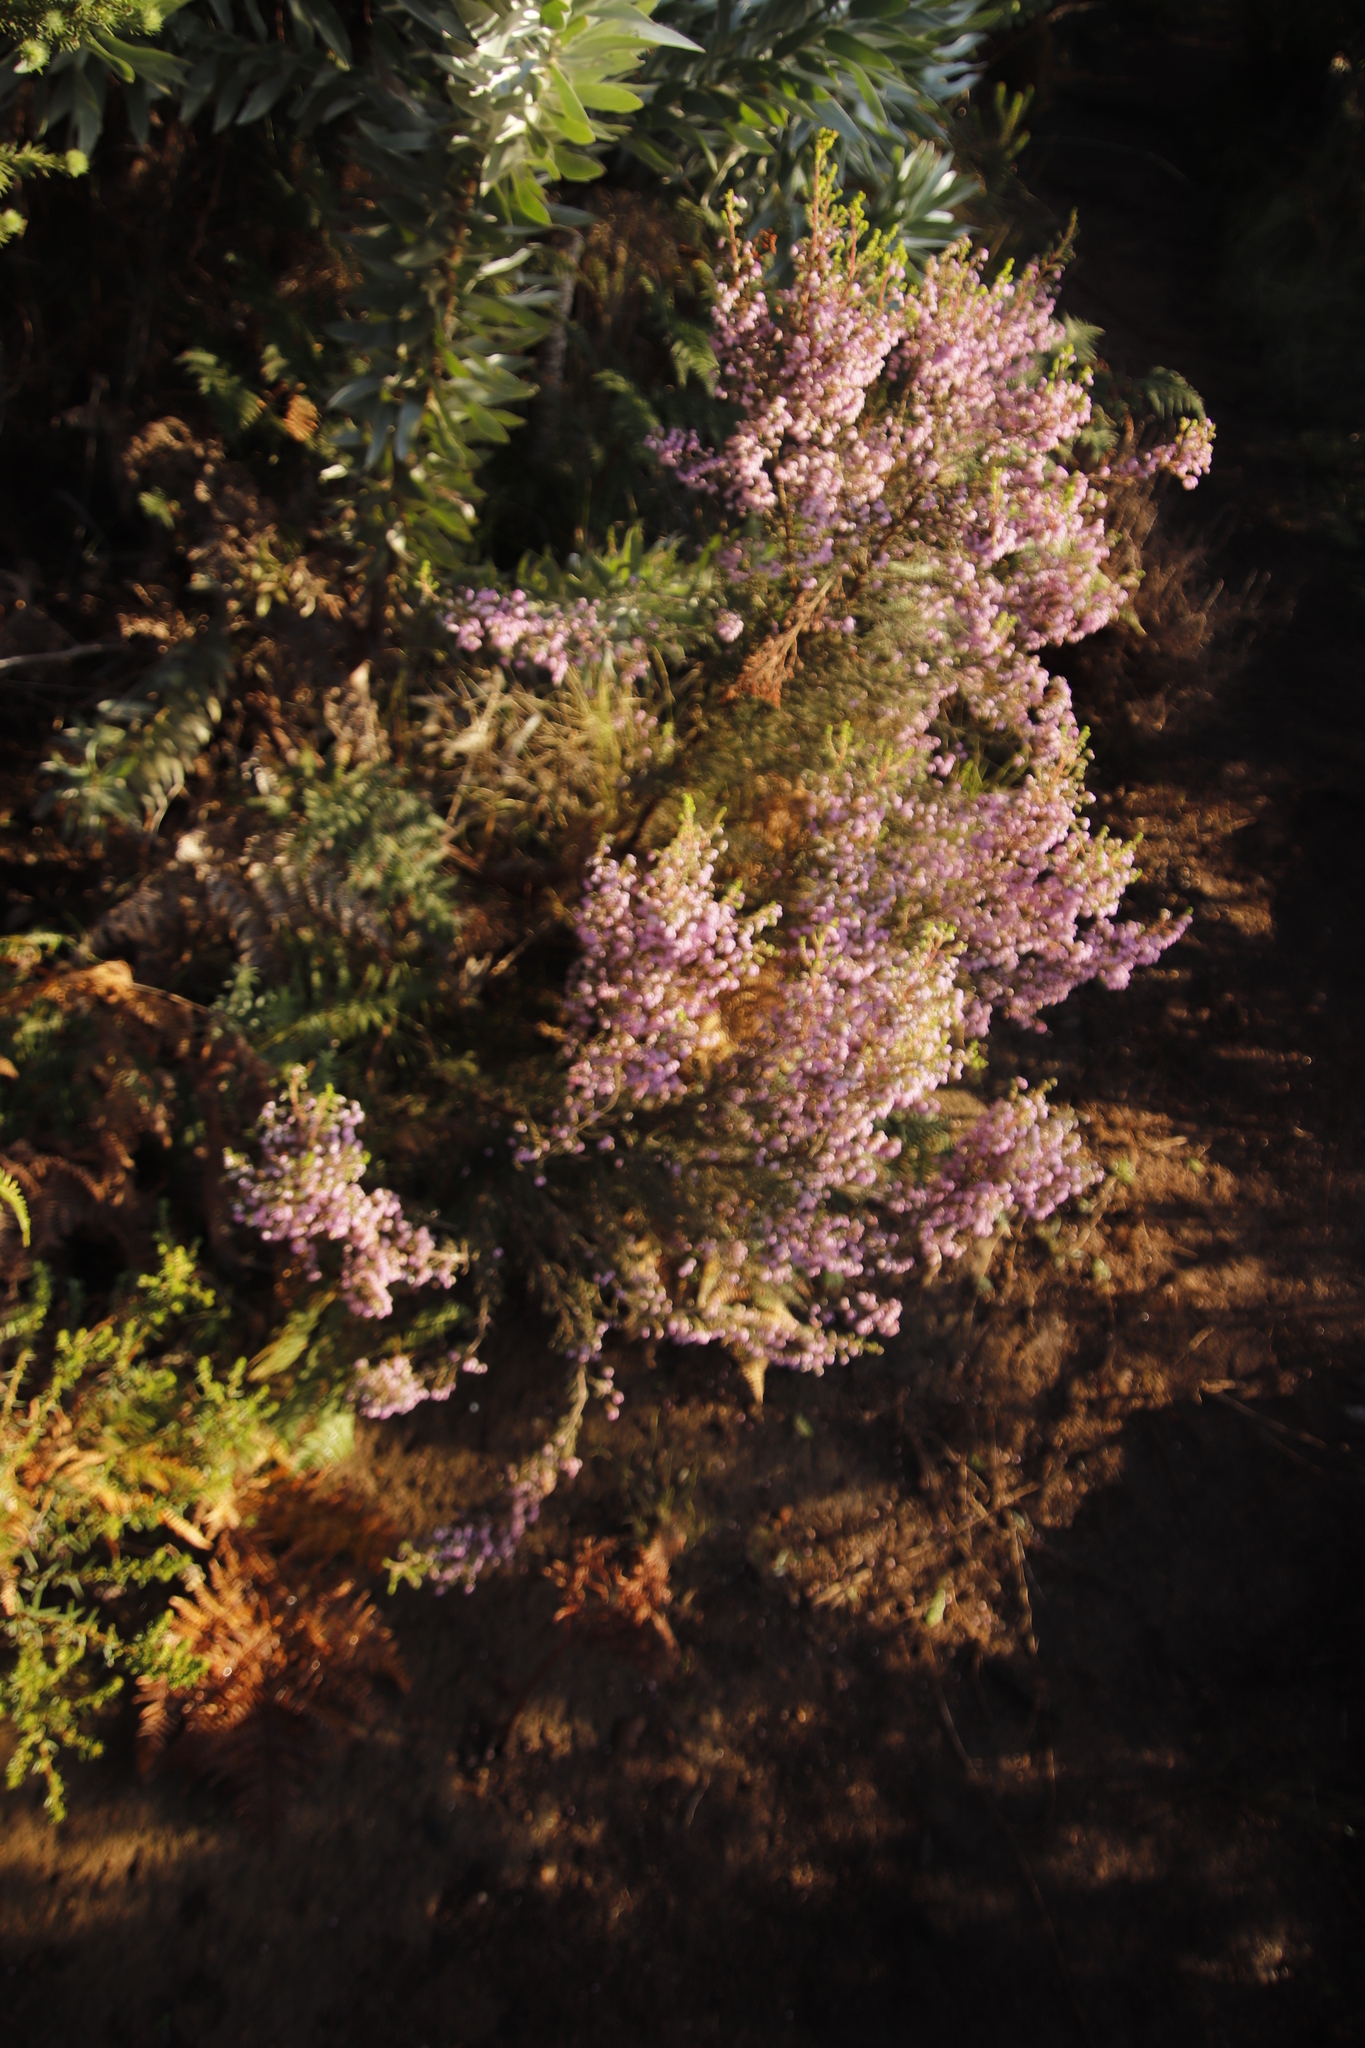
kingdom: Plantae
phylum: Tracheophyta
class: Magnoliopsida
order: Ericales
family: Ericaceae
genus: Erica
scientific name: Erica hirtiflora
